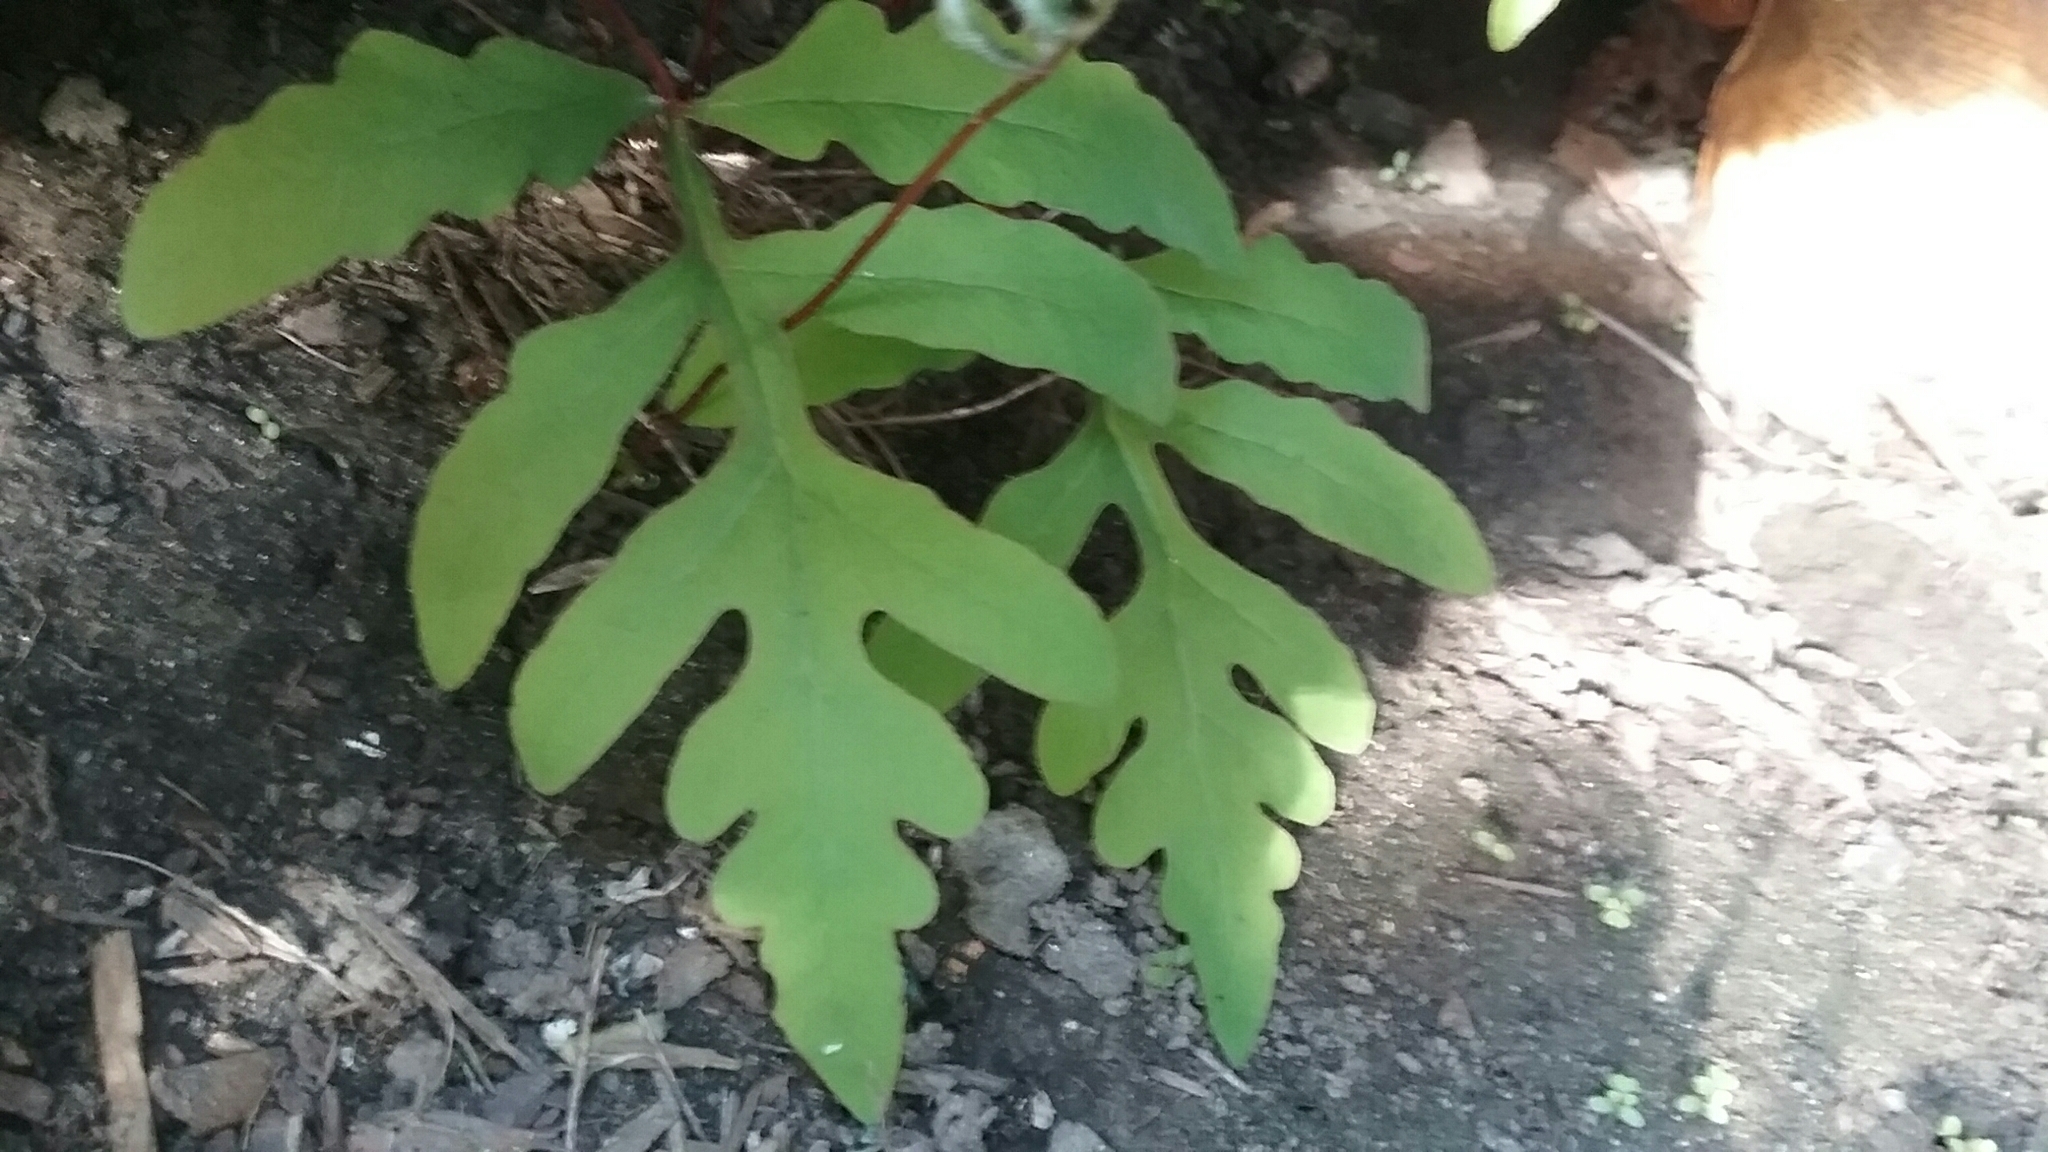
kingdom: Plantae
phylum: Tracheophyta
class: Polypodiopsida
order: Polypodiales
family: Onocleaceae
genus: Onoclea
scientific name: Onoclea sensibilis
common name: Sensitive fern
